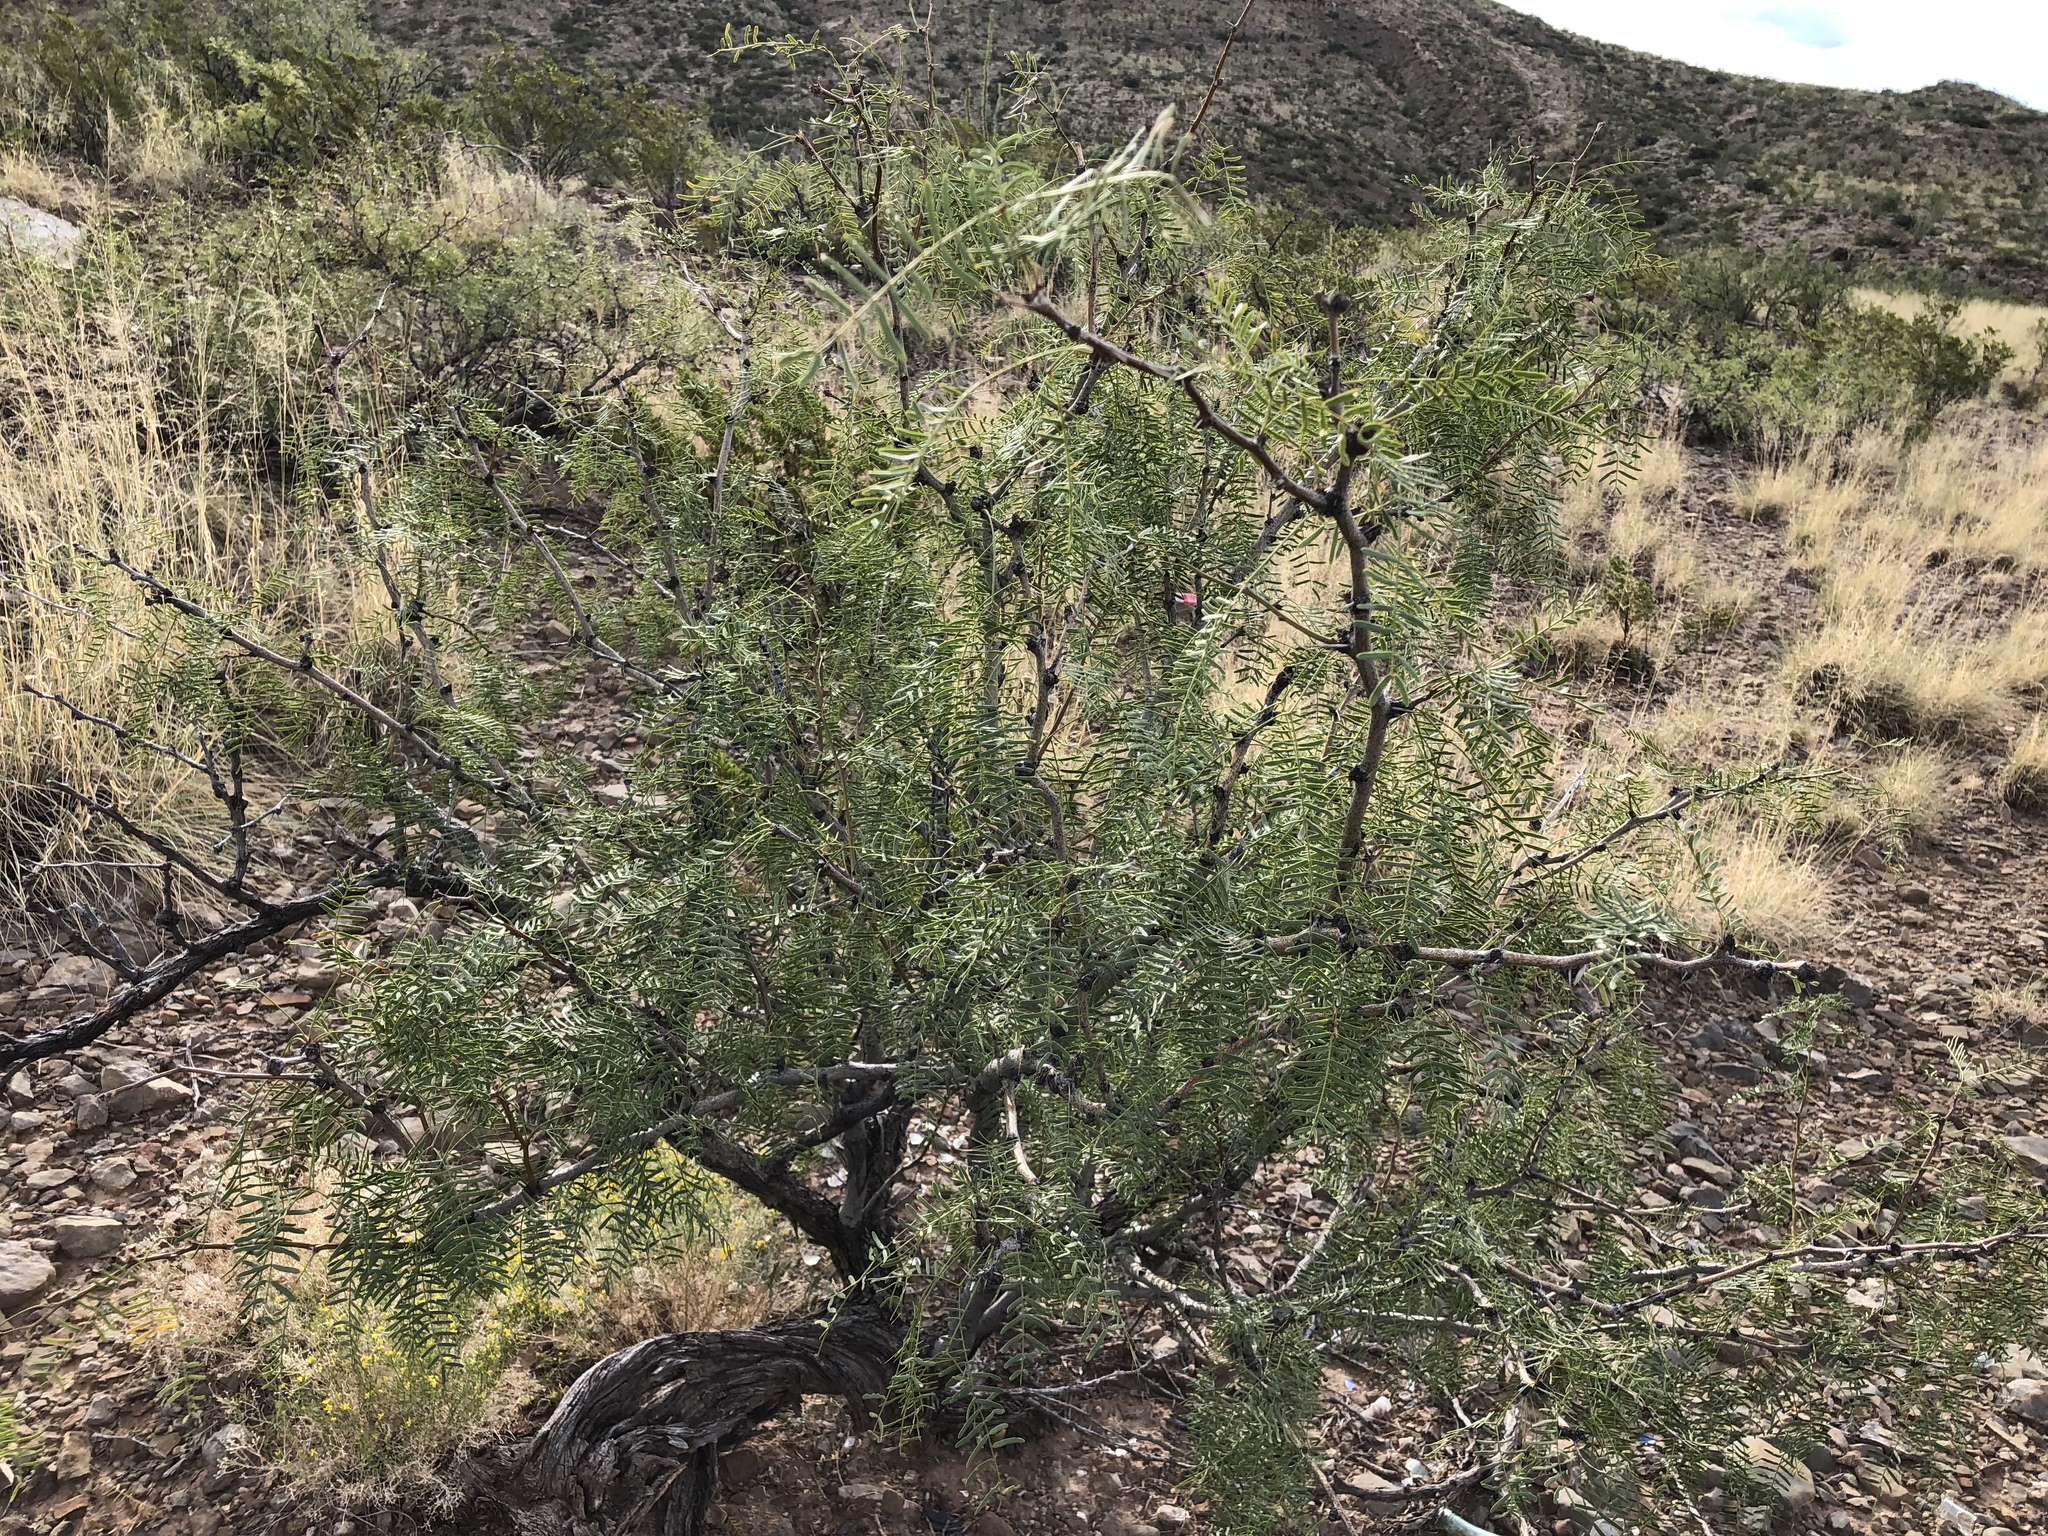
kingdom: Plantae
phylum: Tracheophyta
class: Magnoliopsida
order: Fabales
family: Fabaceae
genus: Prosopis
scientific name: Prosopis glandulosa
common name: Honey mesquite
